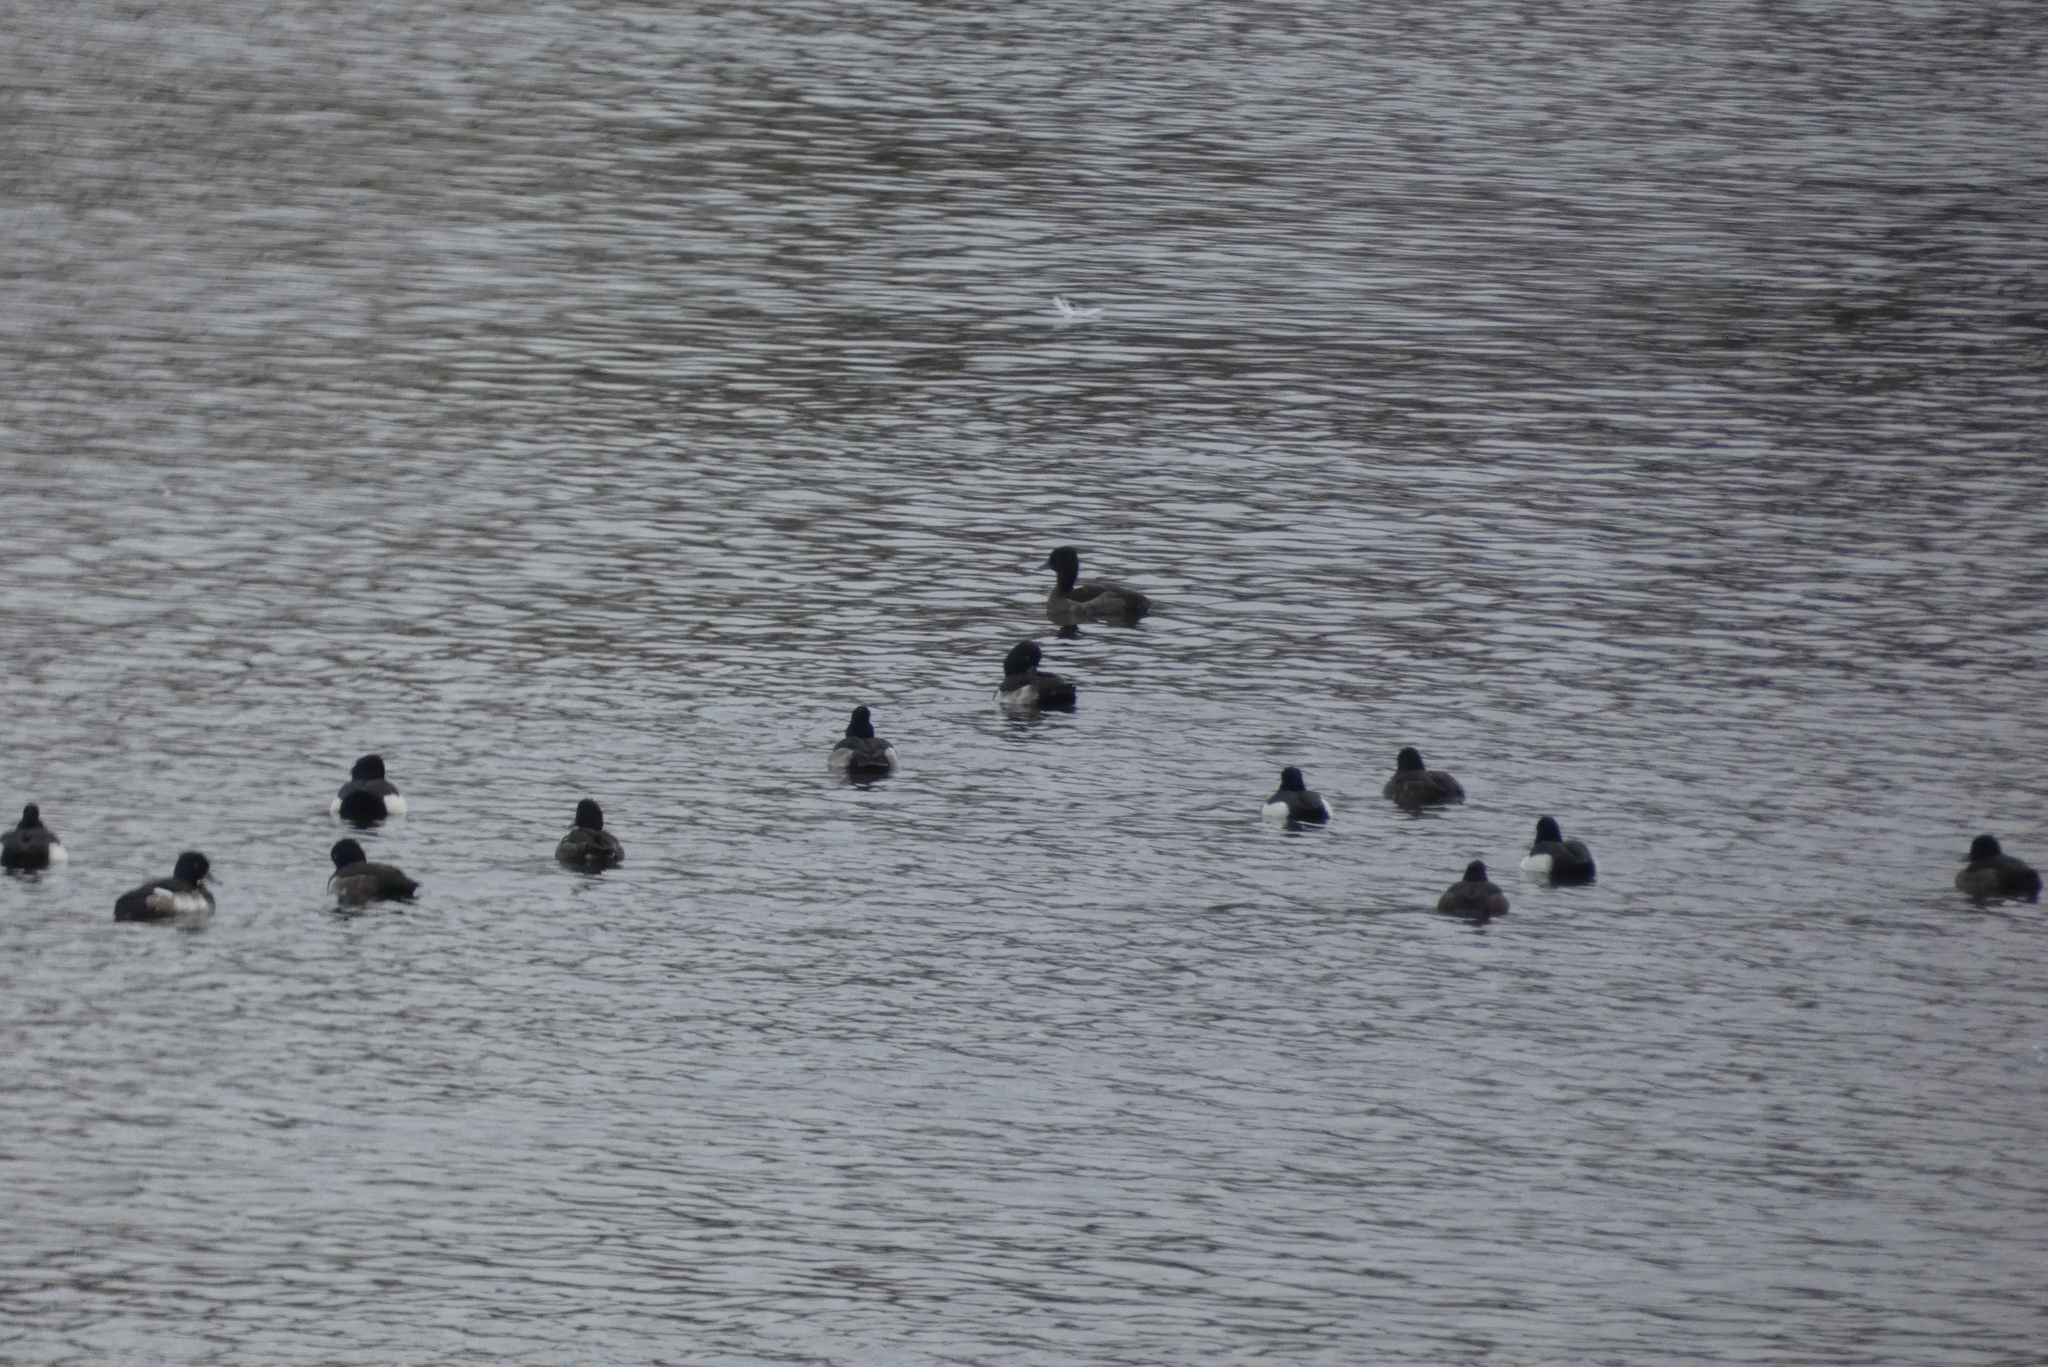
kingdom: Animalia
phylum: Chordata
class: Aves
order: Anseriformes
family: Anatidae
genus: Aythya
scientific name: Aythya fuligula
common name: Tufted duck
